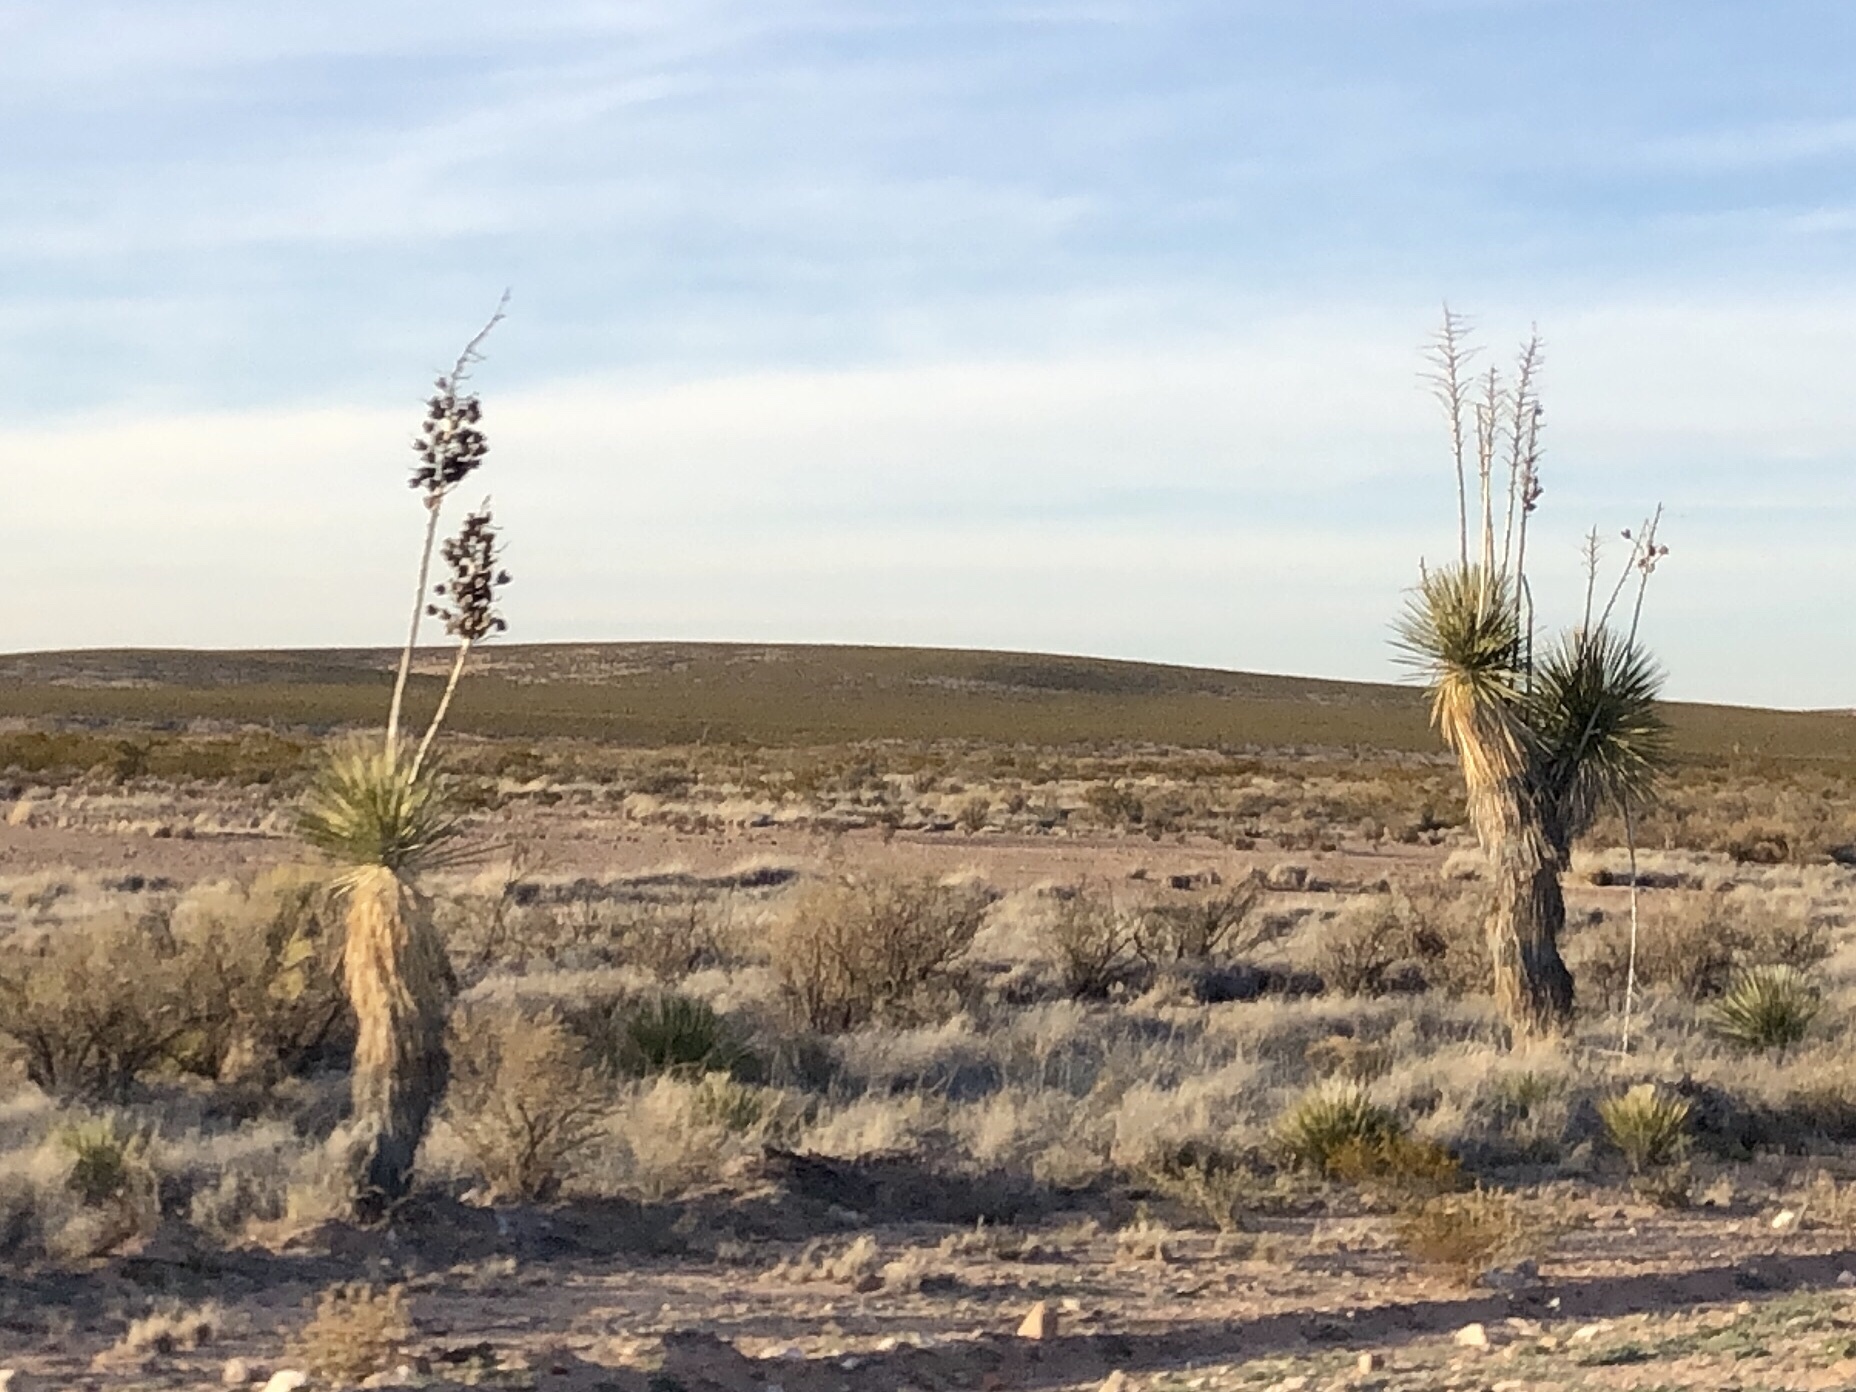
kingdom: Plantae
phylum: Tracheophyta
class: Liliopsida
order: Asparagales
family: Asparagaceae
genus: Yucca
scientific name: Yucca elata
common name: Palmella
